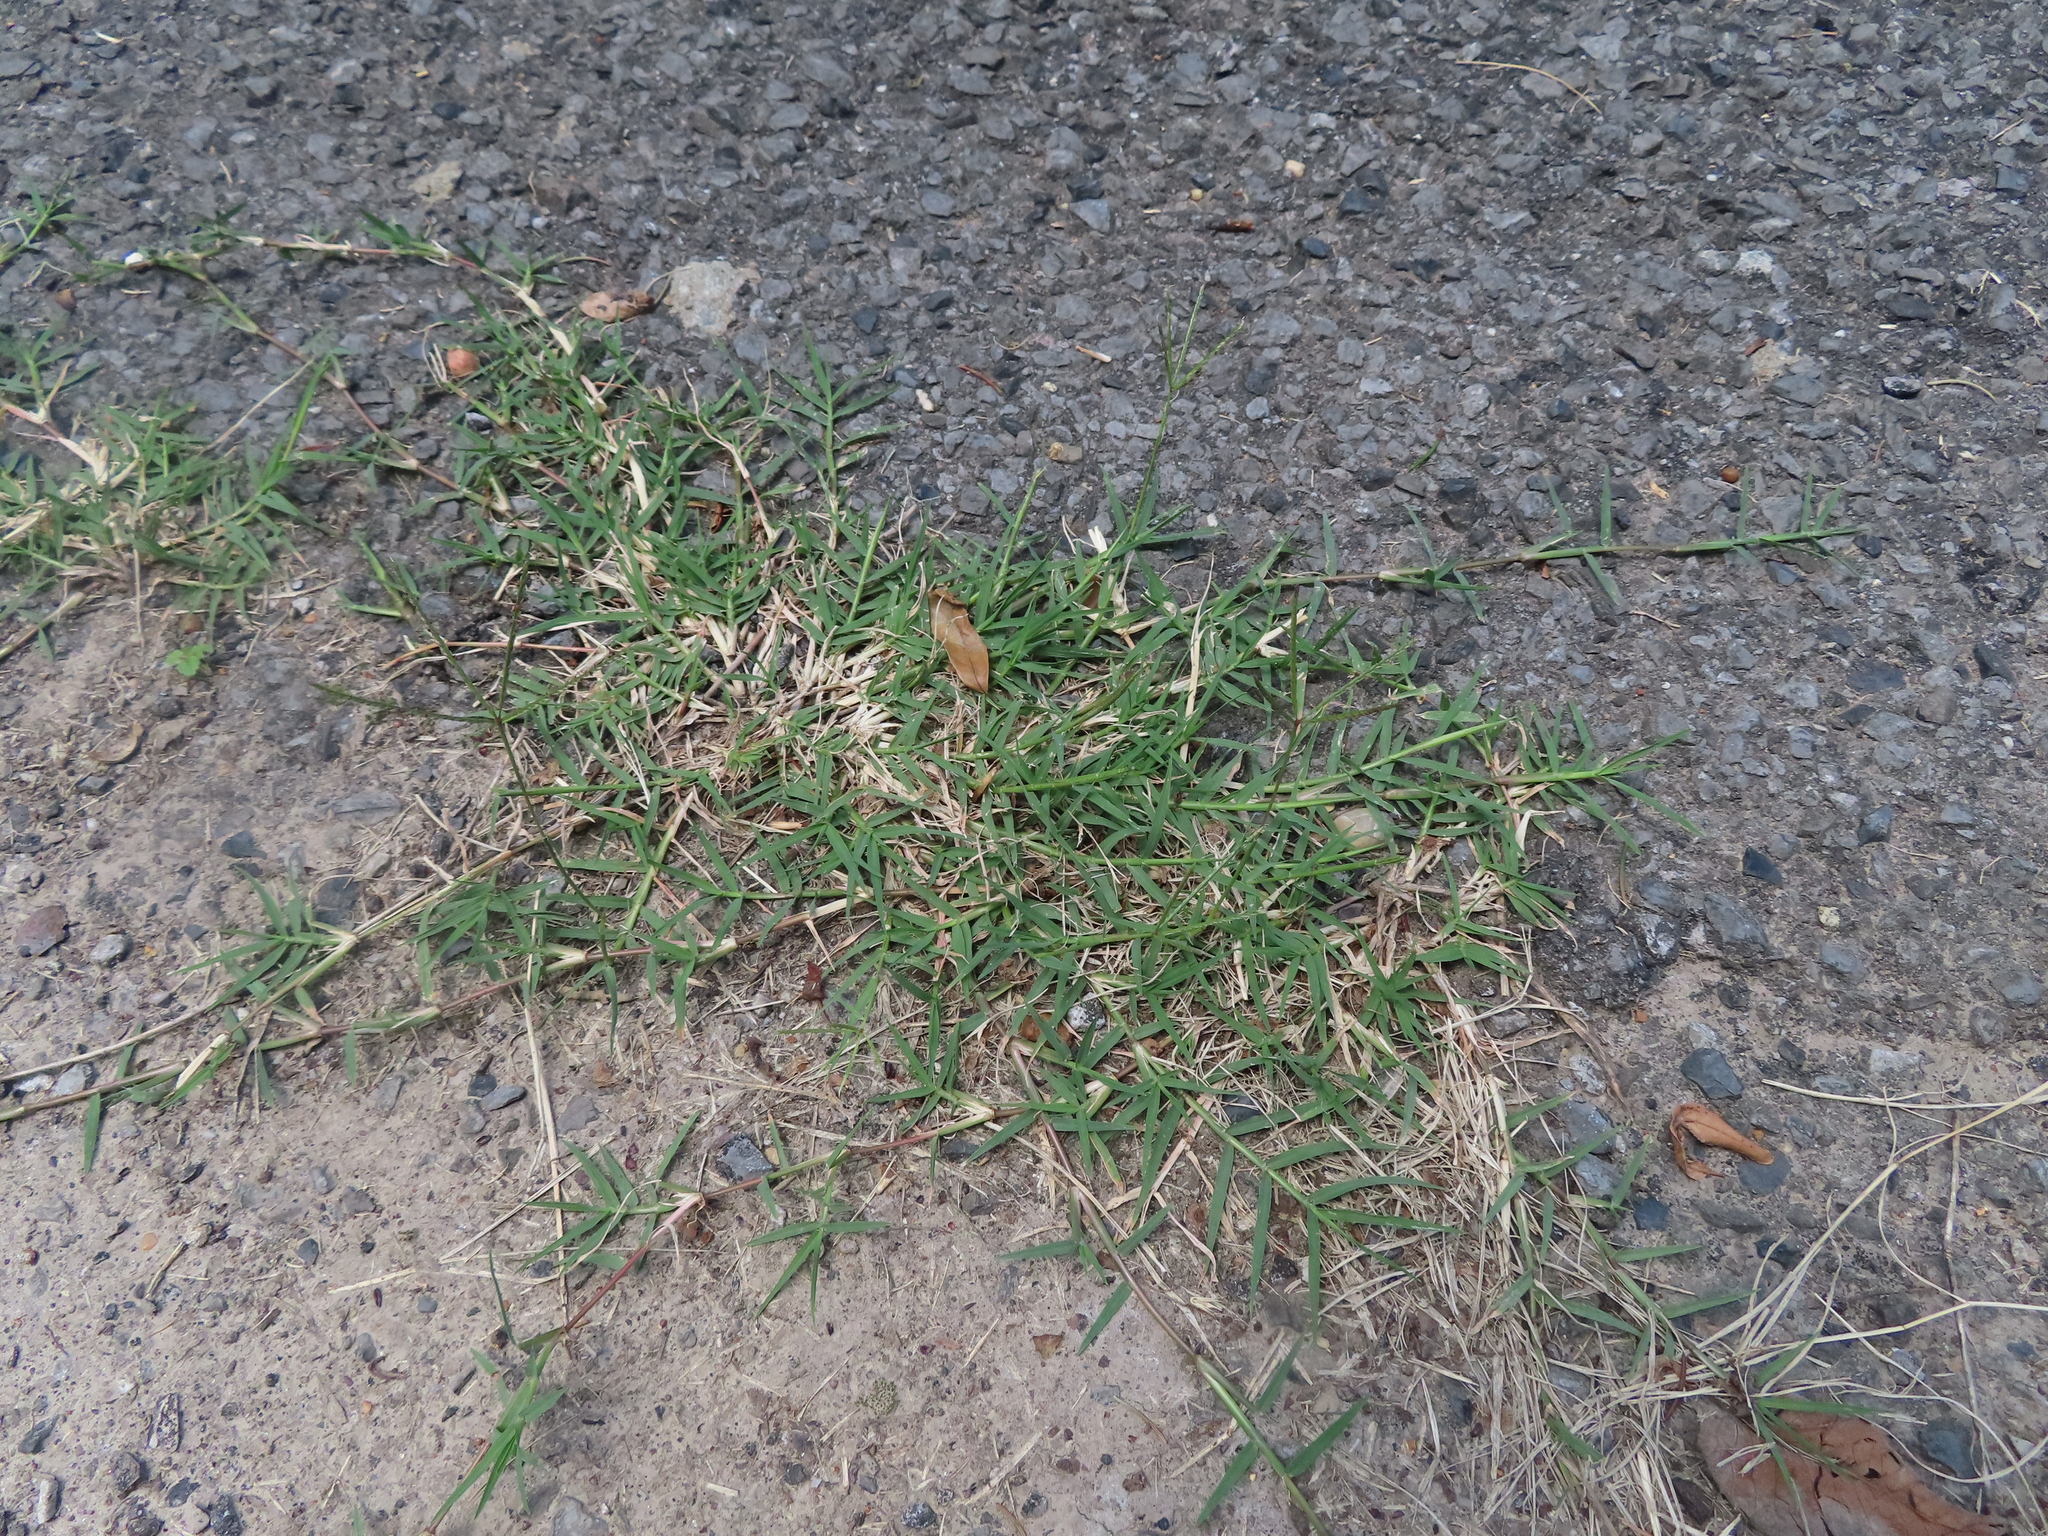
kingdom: Plantae
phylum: Tracheophyta
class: Liliopsida
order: Poales
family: Poaceae
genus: Cynodon
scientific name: Cynodon dactylon
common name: Bermuda grass
